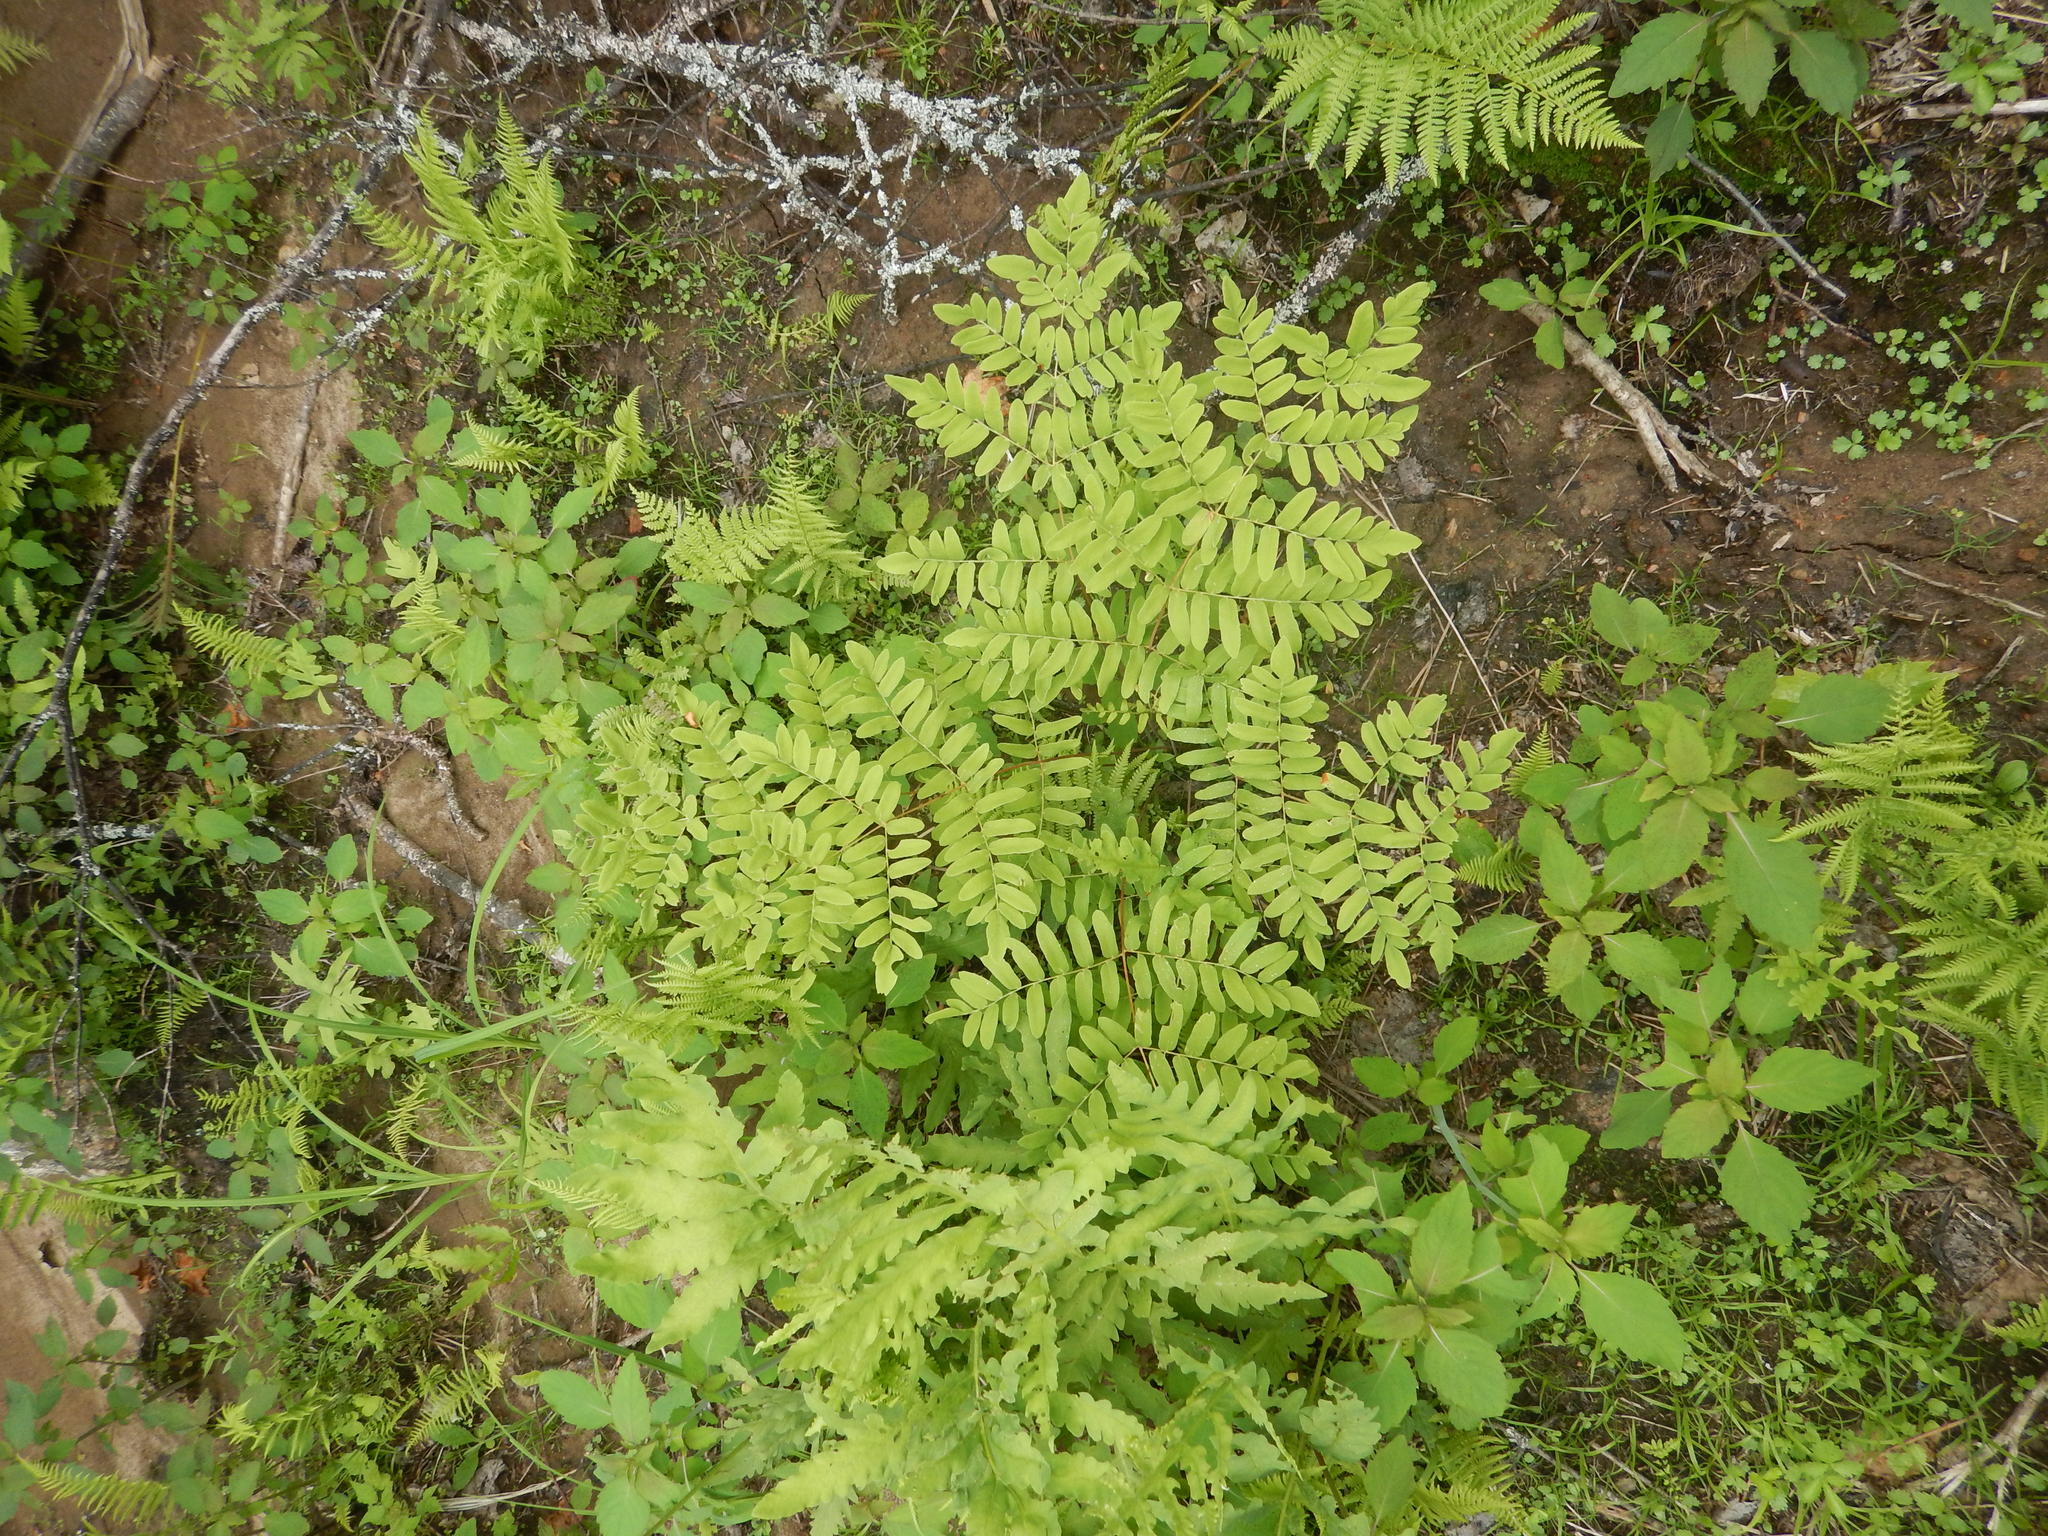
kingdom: Plantae
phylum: Tracheophyta
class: Polypodiopsida
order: Osmundales
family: Osmundaceae
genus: Osmunda
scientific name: Osmunda spectabilis
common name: American royal fern
